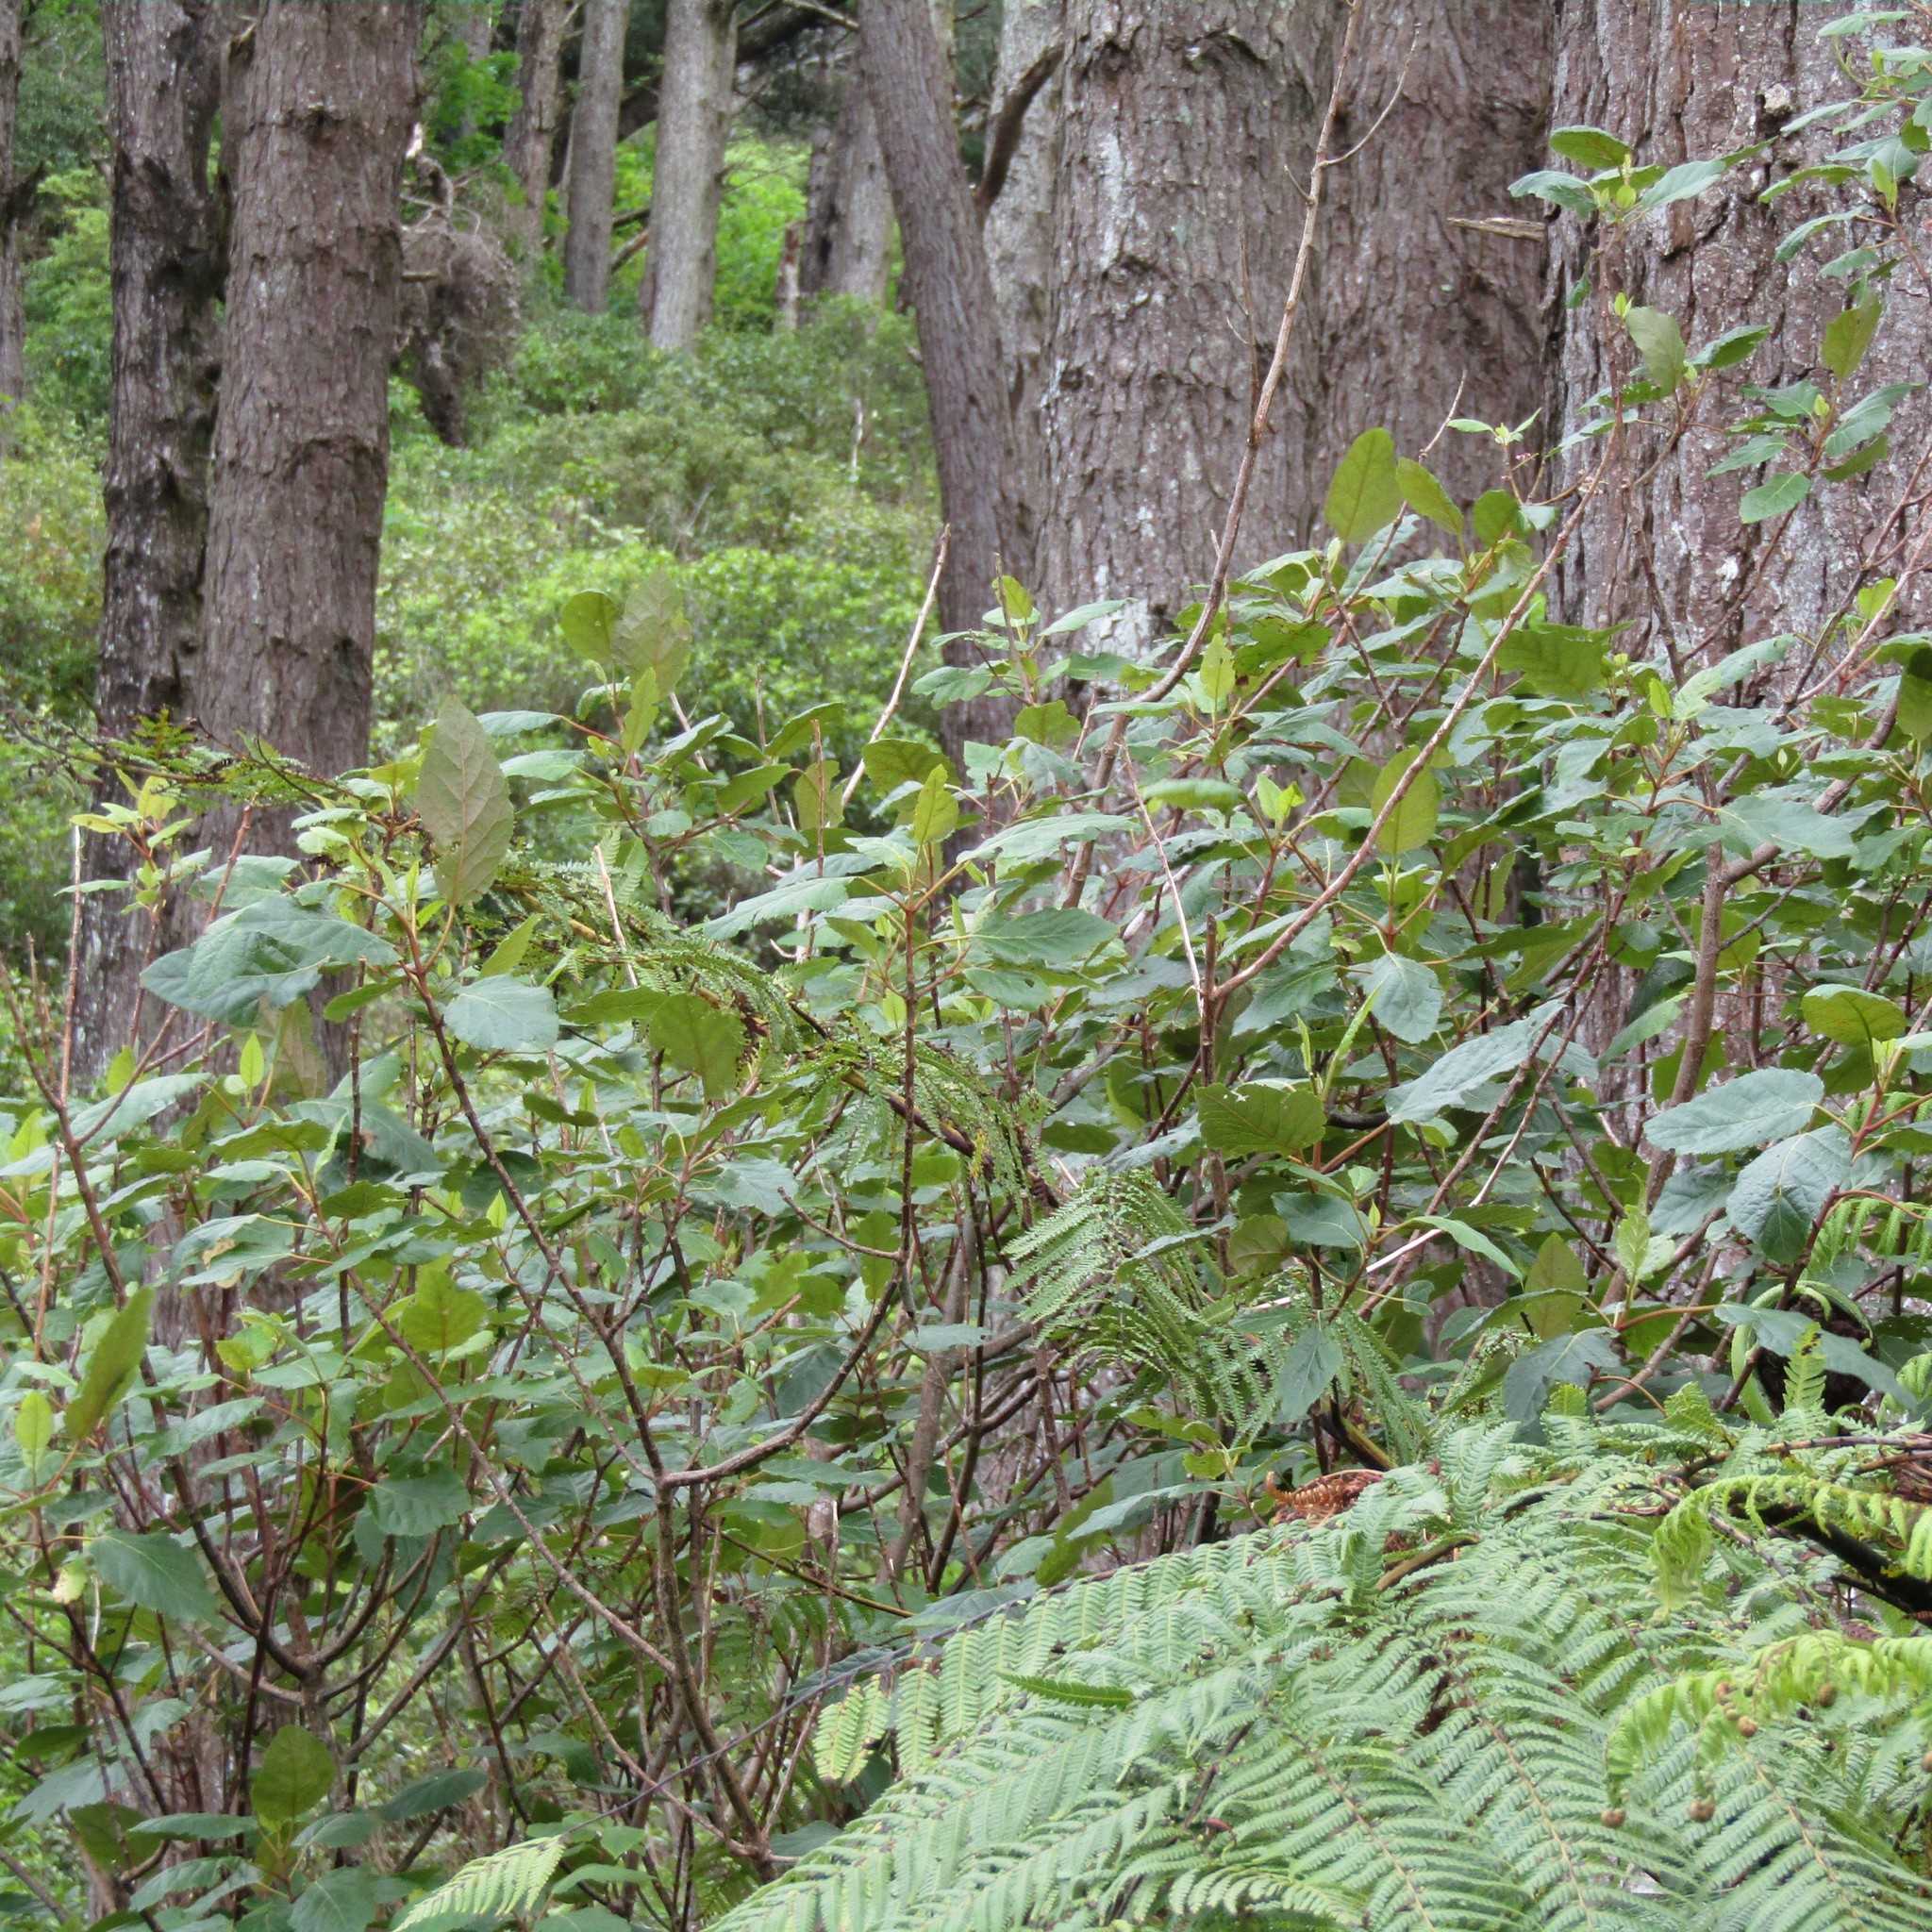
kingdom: Plantae
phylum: Tracheophyta
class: Magnoliopsida
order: Oxalidales
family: Elaeocarpaceae
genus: Aristotelia
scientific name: Aristotelia serrata
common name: New zealand wineberry
